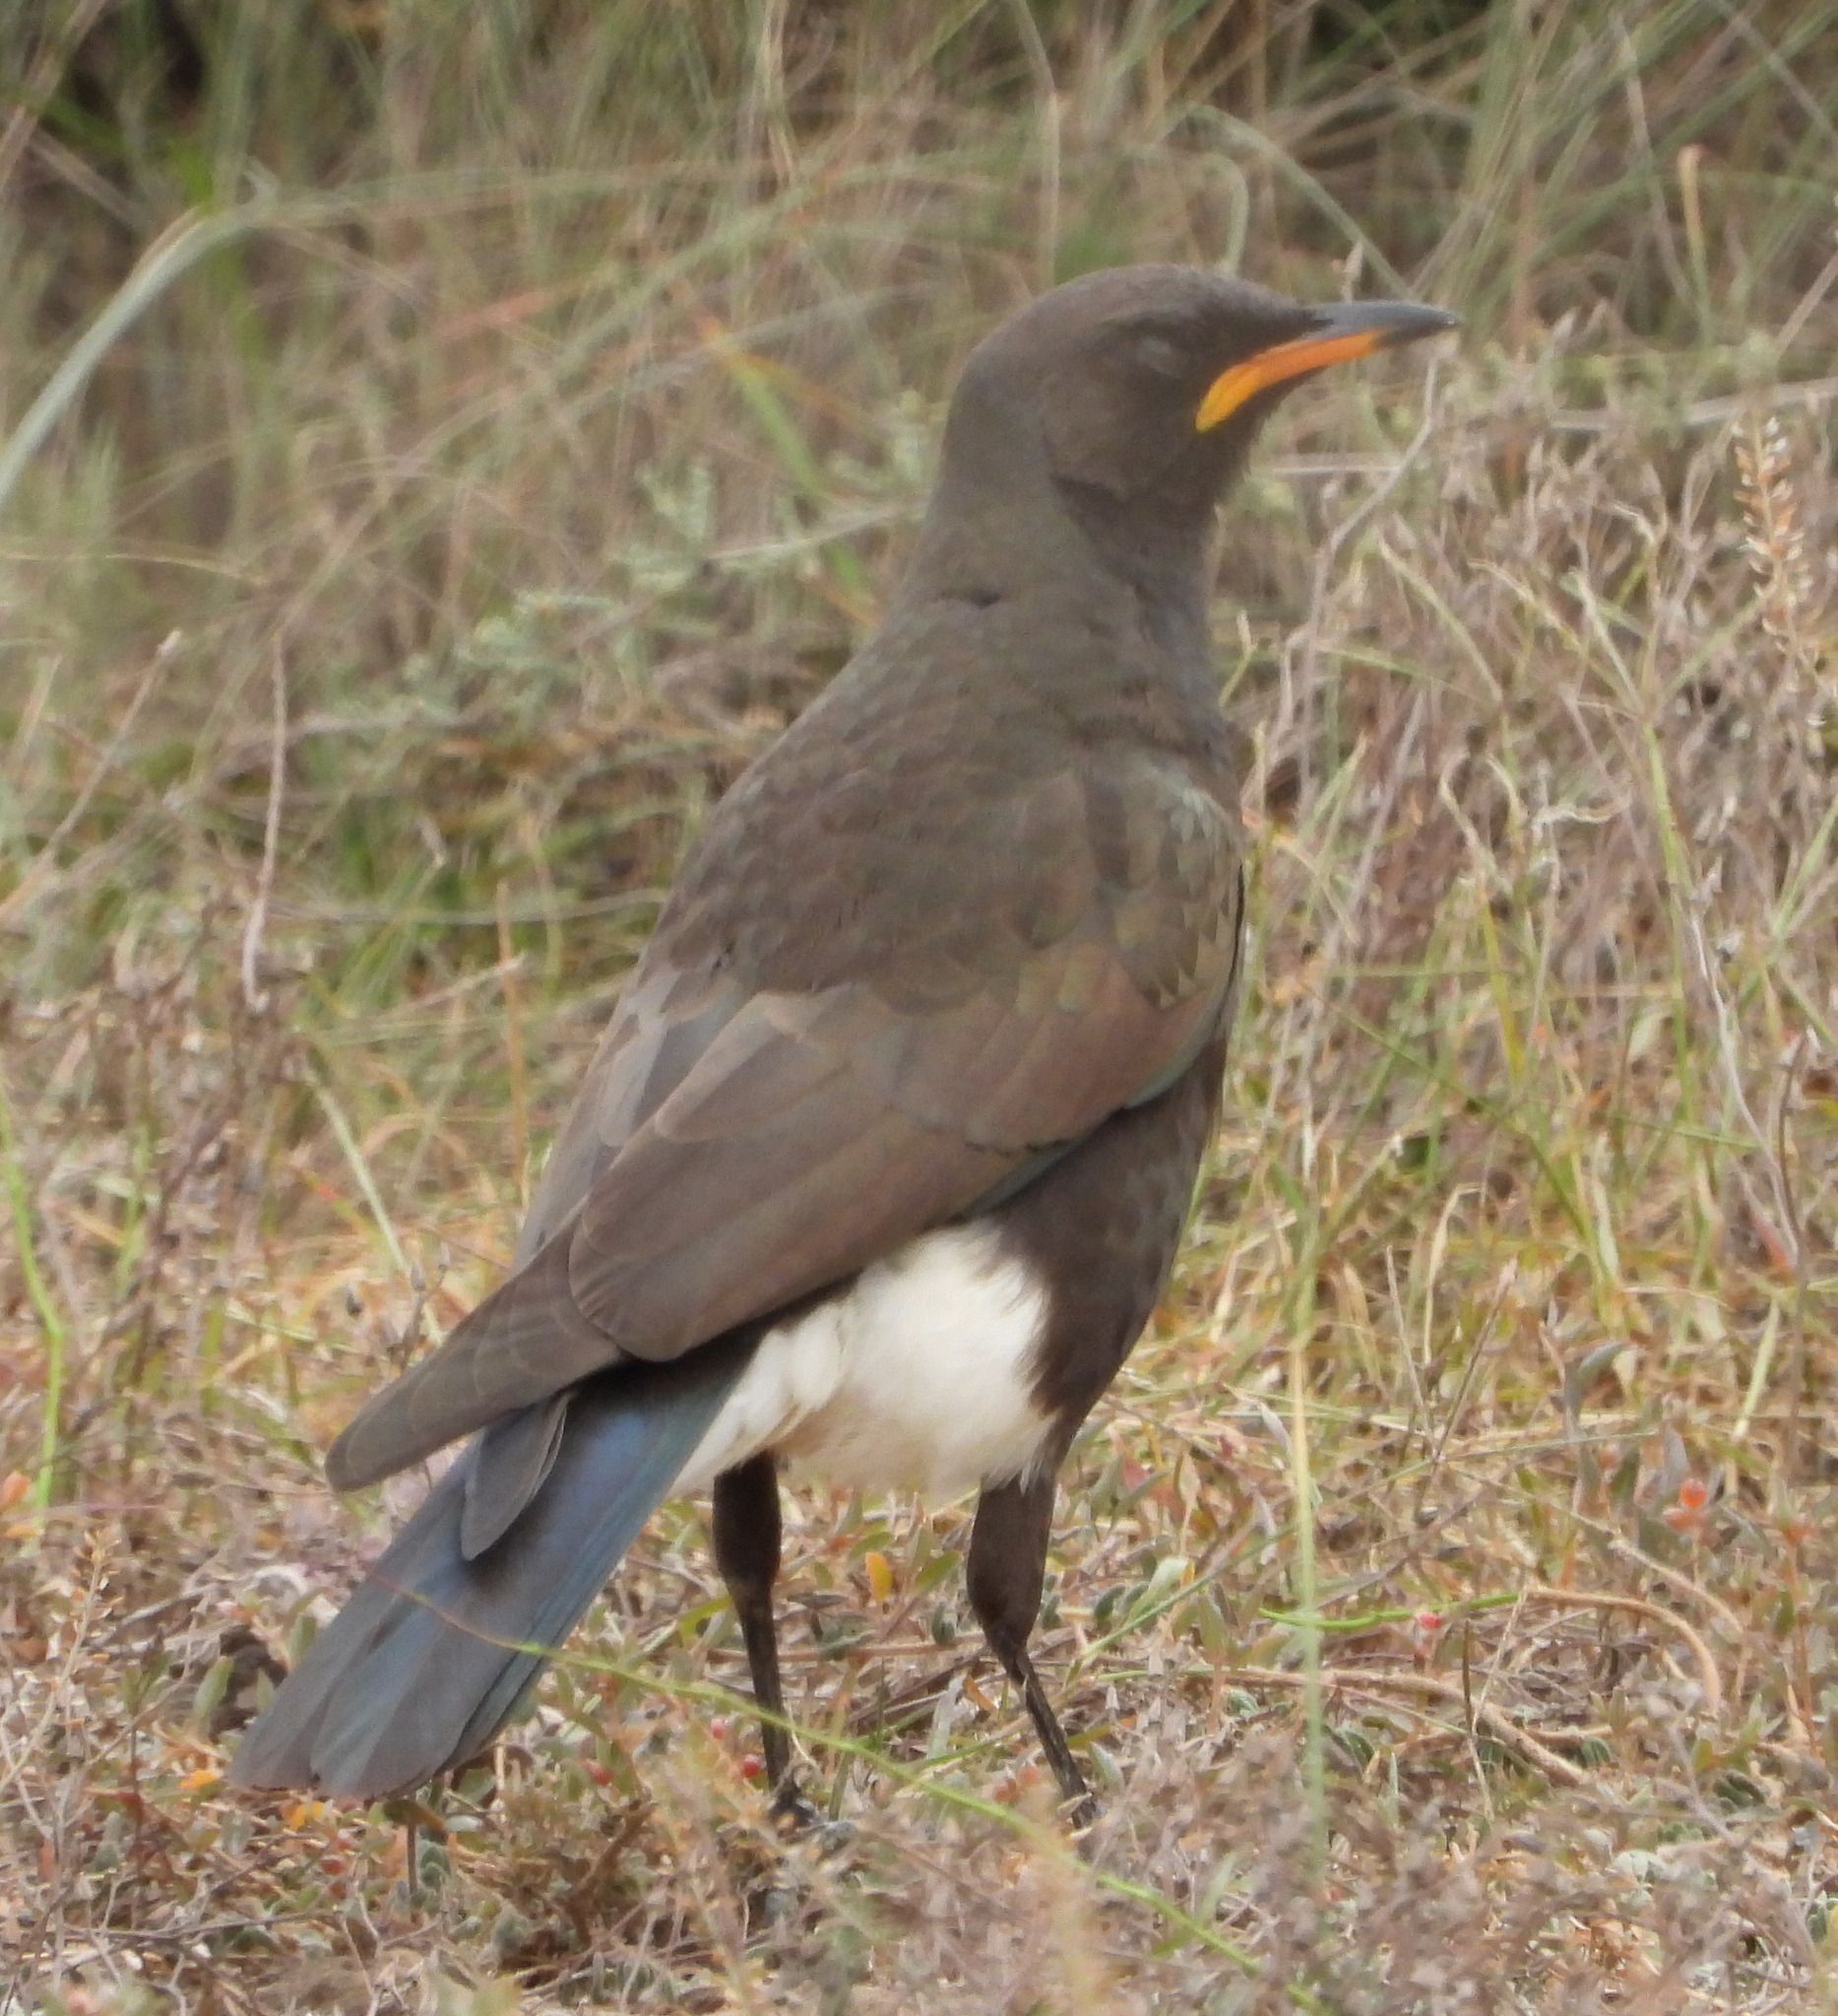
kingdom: Animalia
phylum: Chordata
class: Aves
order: Passeriformes
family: Sturnidae
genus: Lamprotornis
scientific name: Lamprotornis bicolor
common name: Pied starling
